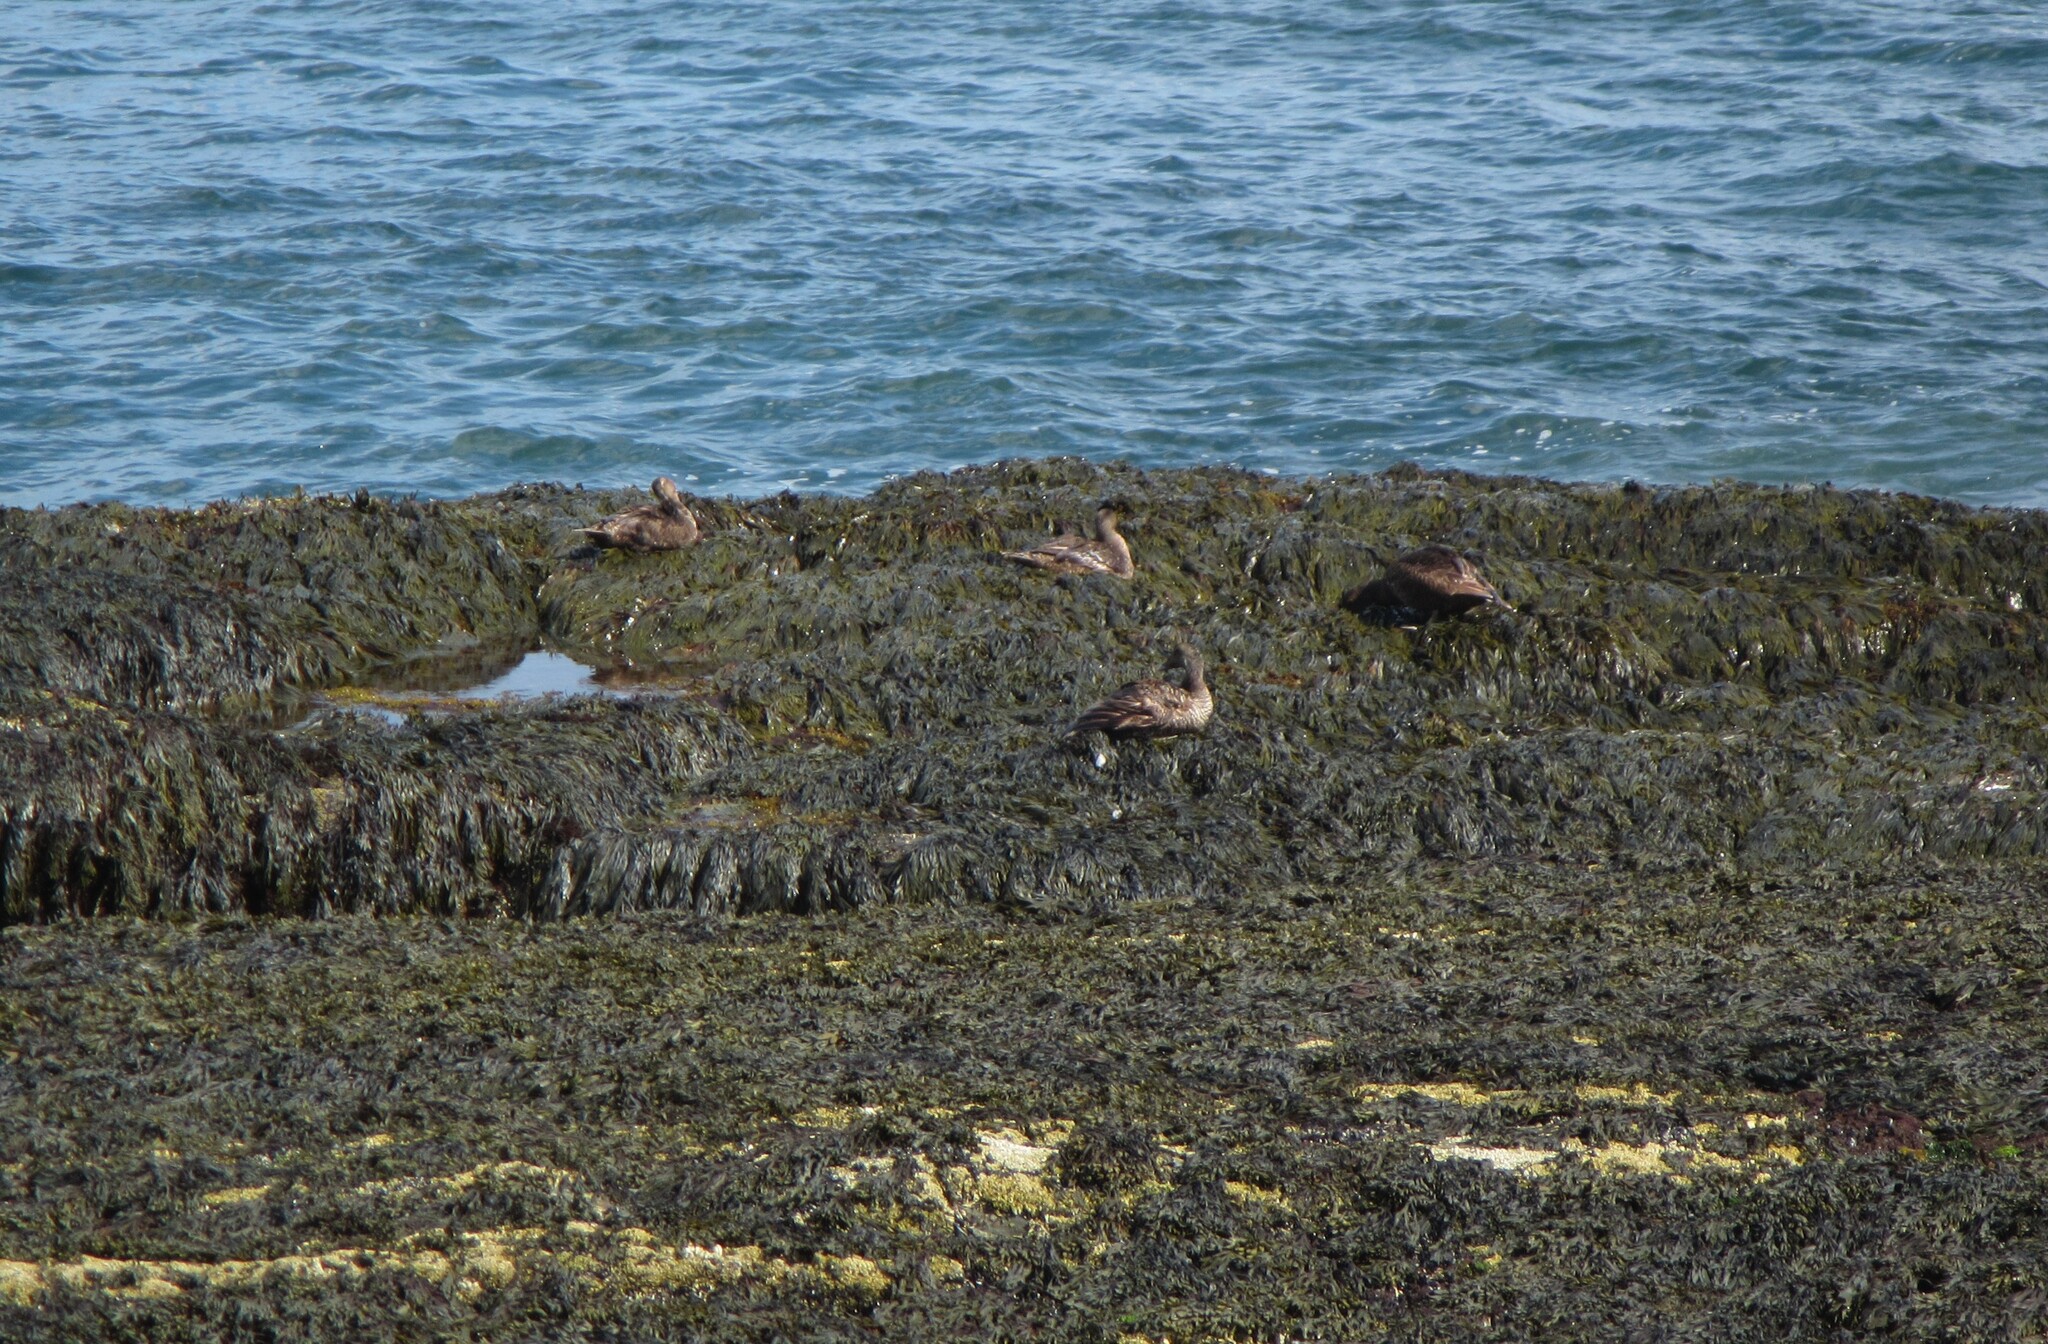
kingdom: Animalia
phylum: Chordata
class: Aves
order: Anseriformes
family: Anatidae
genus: Somateria
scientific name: Somateria mollissima
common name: Common eider
